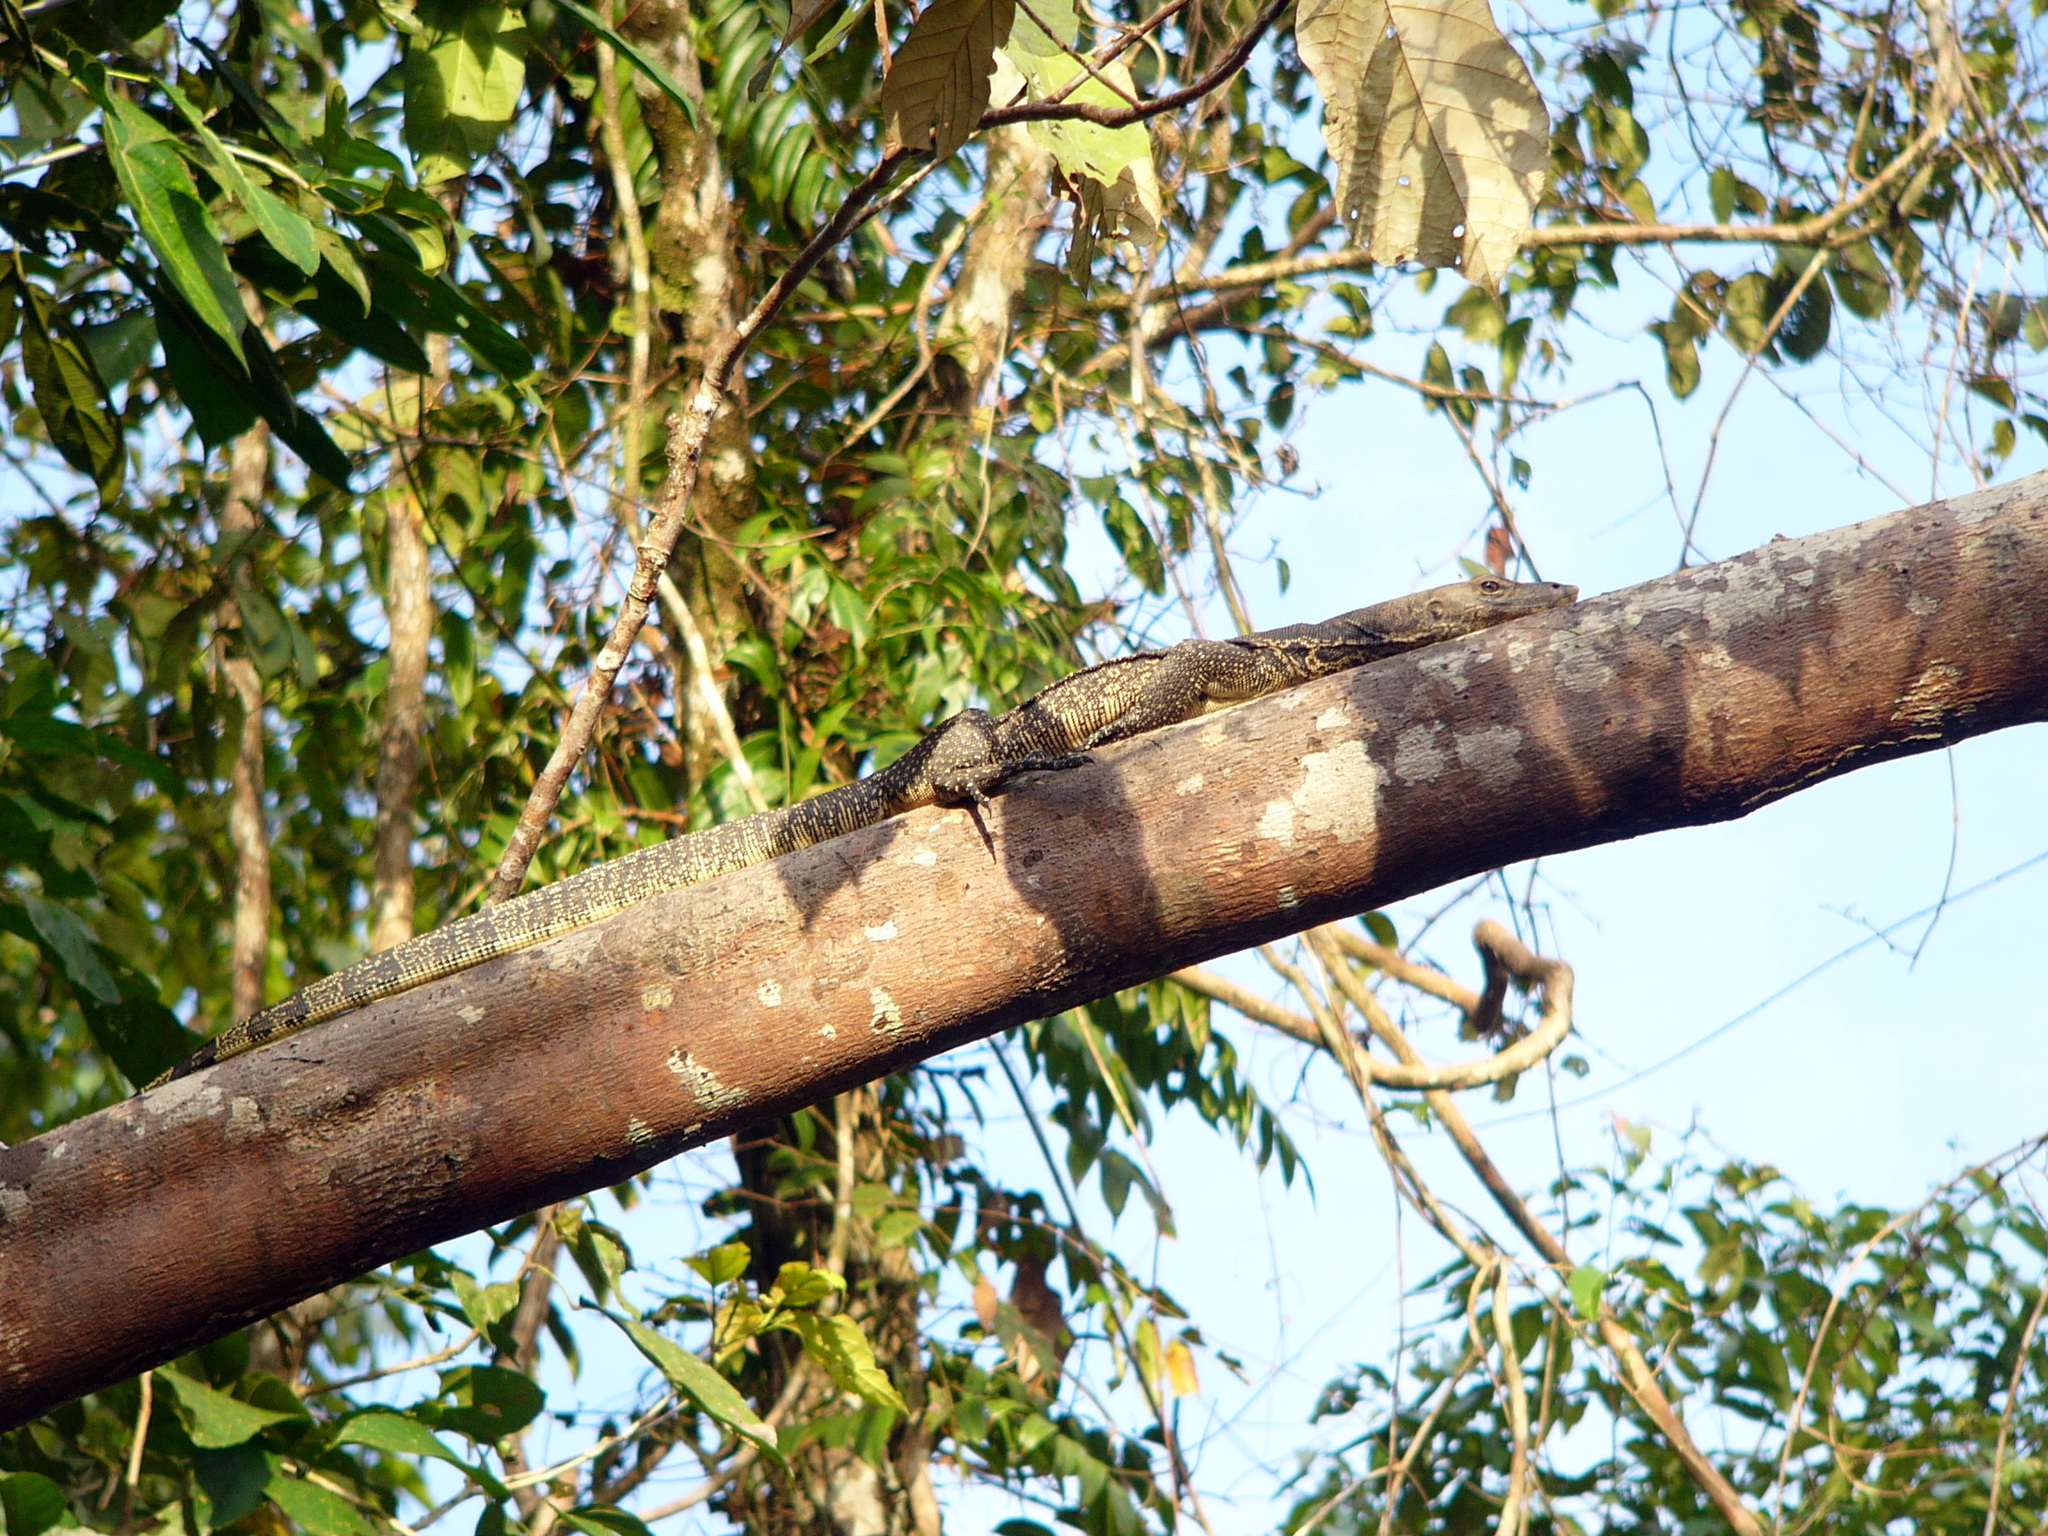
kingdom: Animalia
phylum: Chordata
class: Squamata
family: Varanidae
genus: Varanus
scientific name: Varanus salvator
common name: Common water monitor
